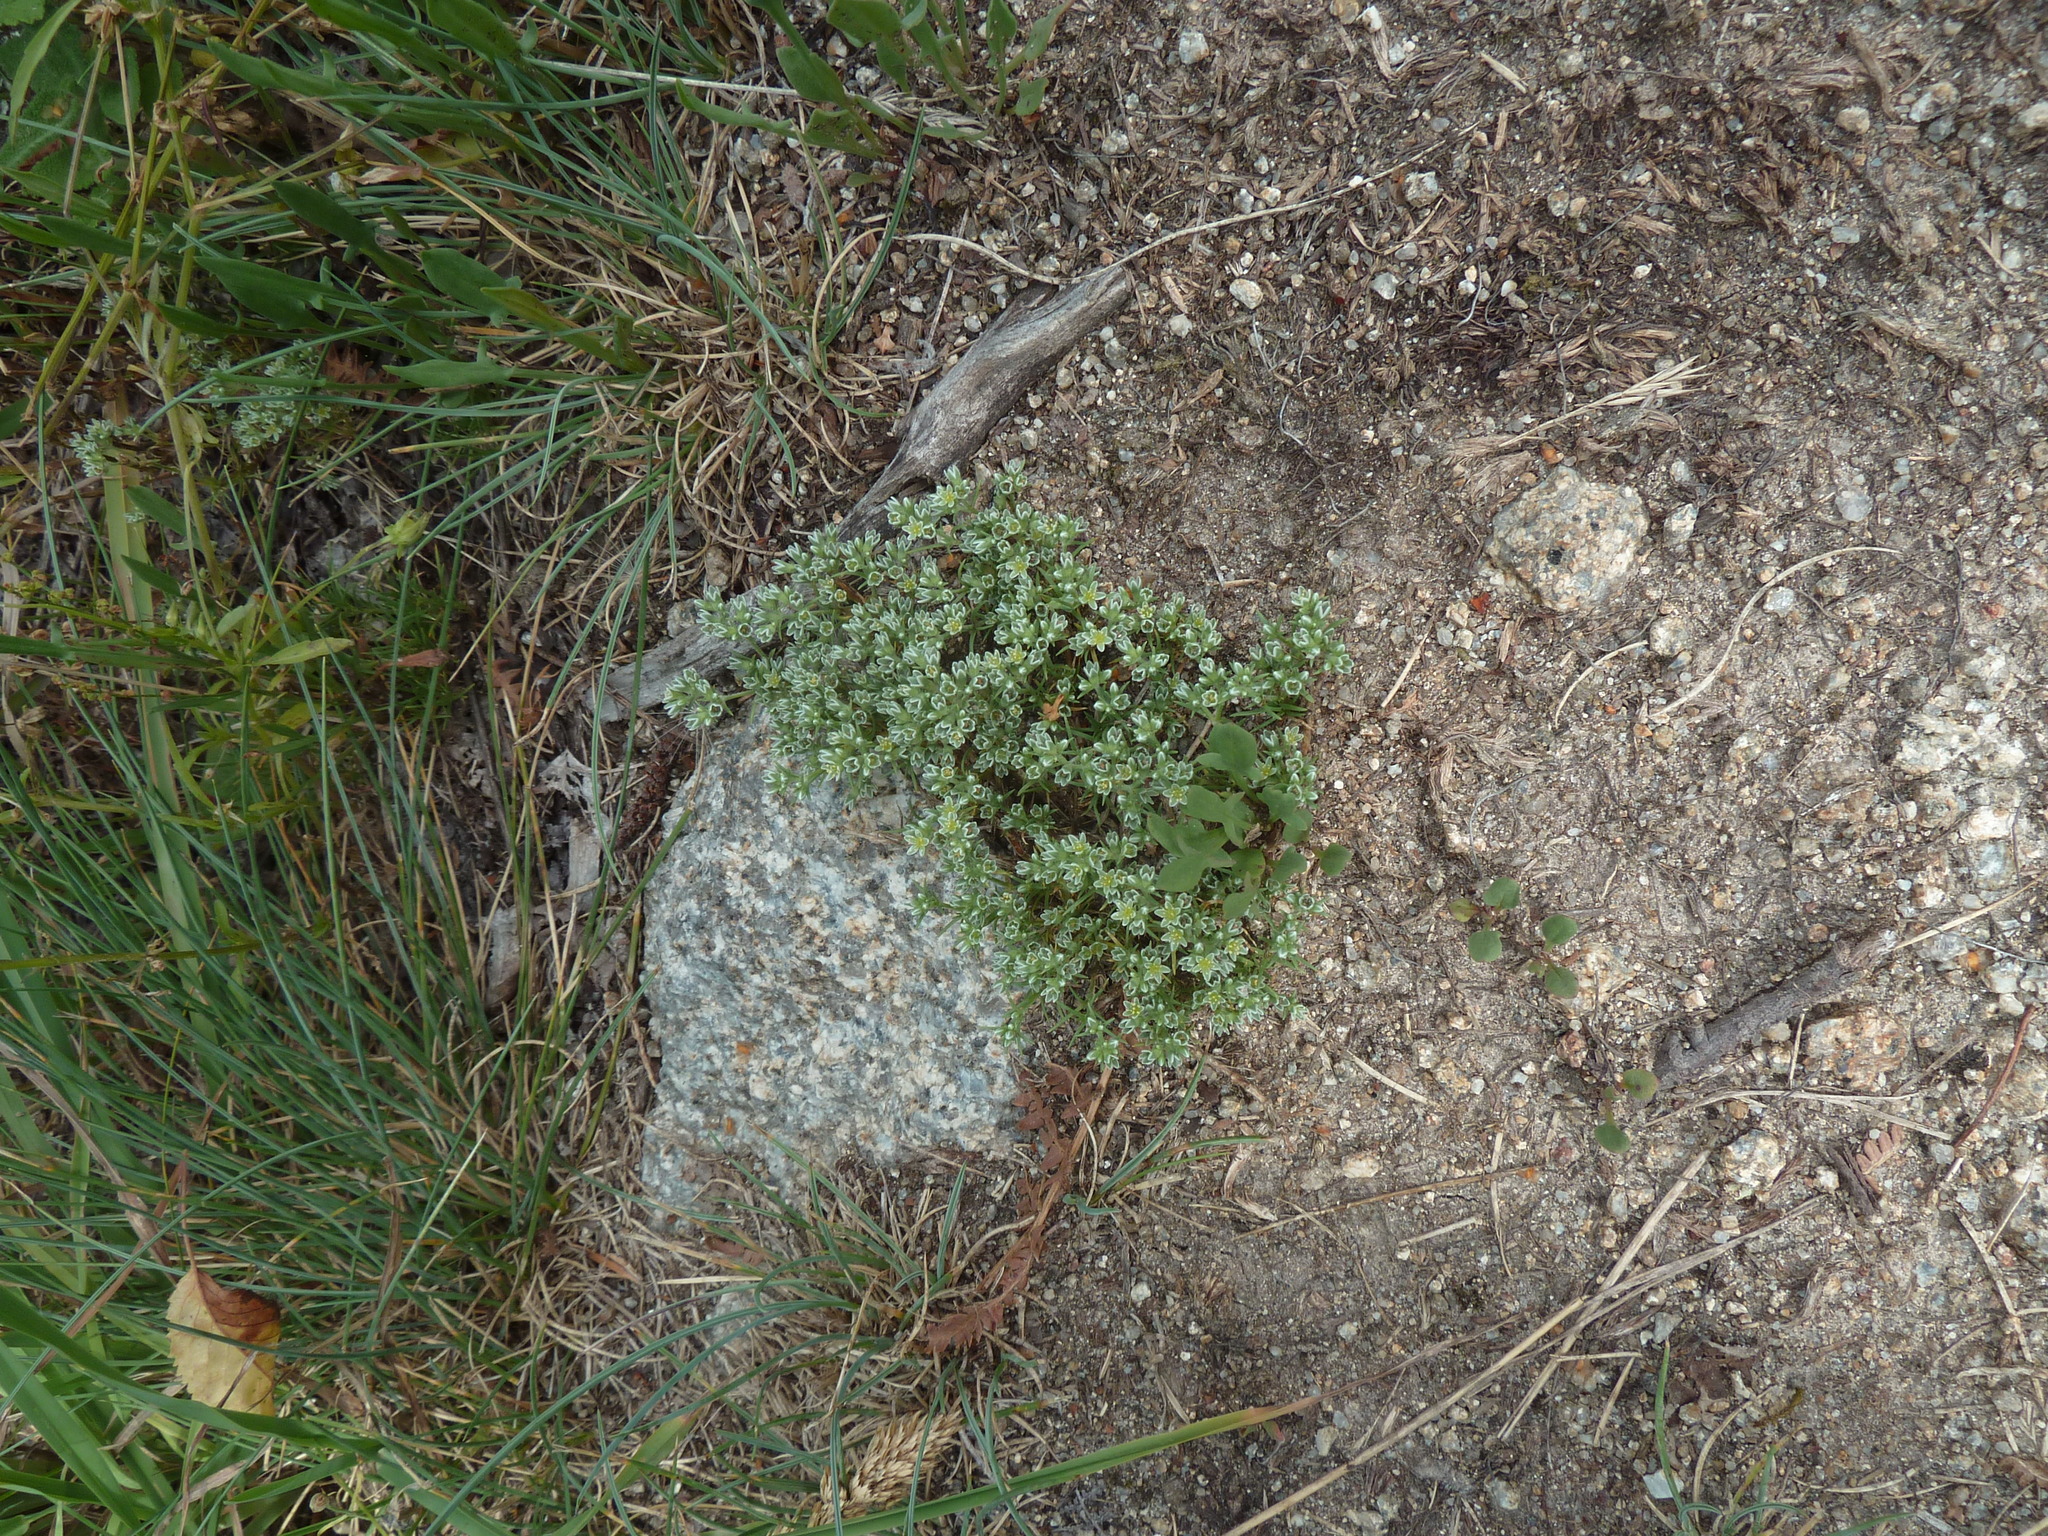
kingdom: Plantae
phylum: Tracheophyta
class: Magnoliopsida
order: Caryophyllales
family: Caryophyllaceae
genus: Scleranthus
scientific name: Scleranthus perennis
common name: Perennial knawel
